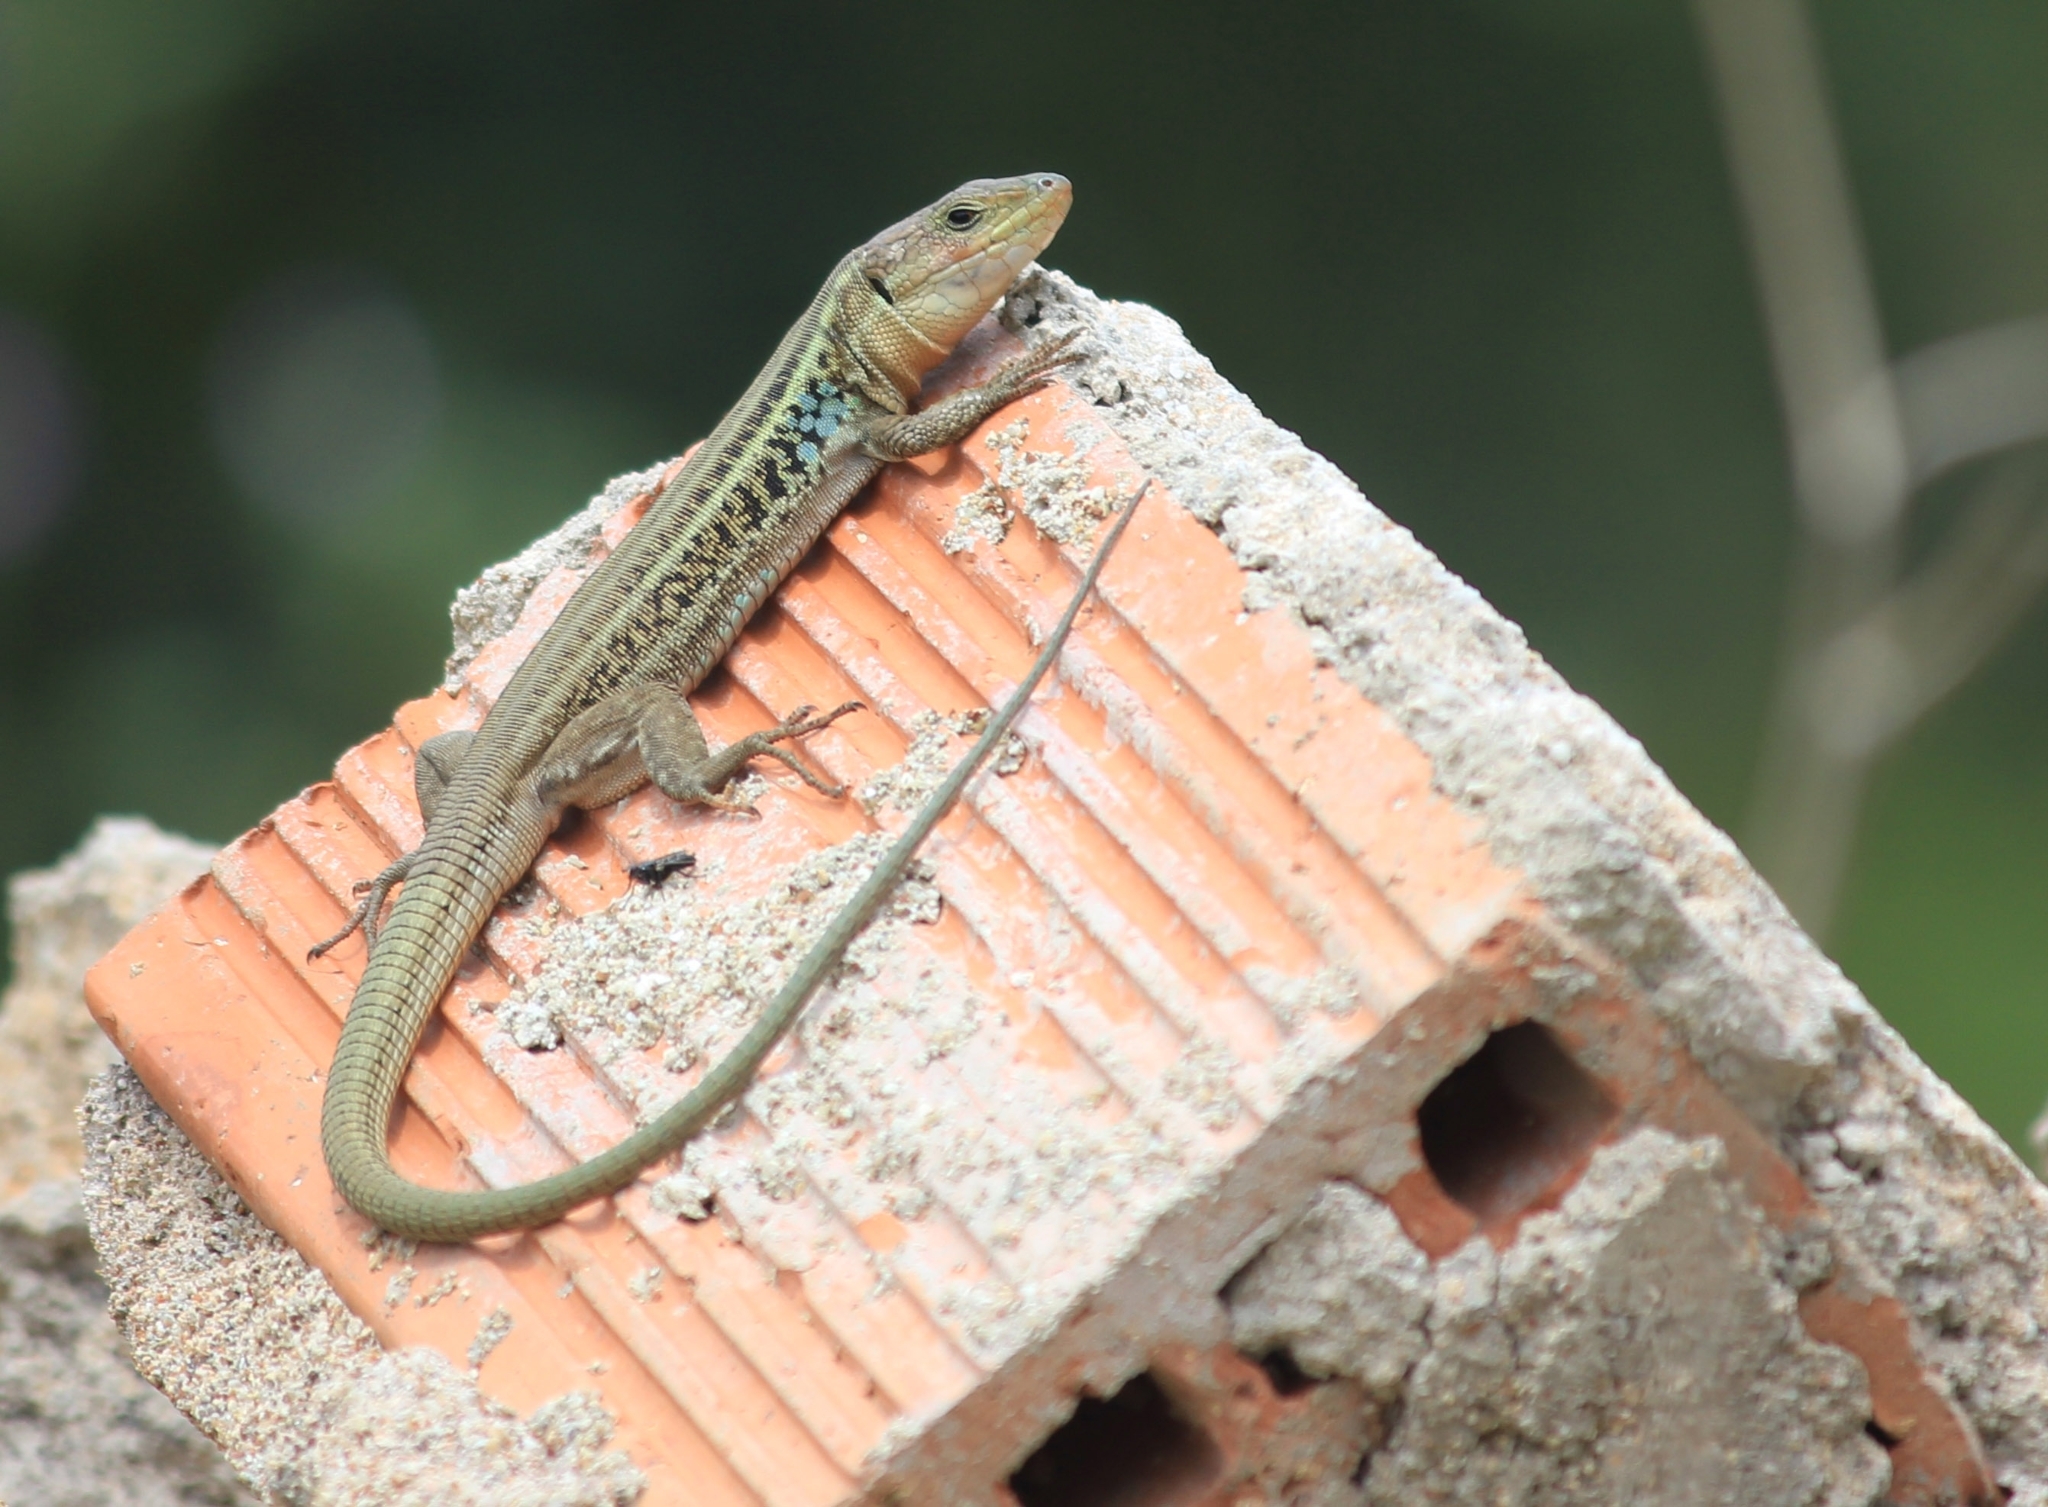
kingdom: Animalia
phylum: Chordata
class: Squamata
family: Lacertidae
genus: Podarcis
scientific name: Podarcis peloponnesiacus
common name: Peloponnese wall lizard
